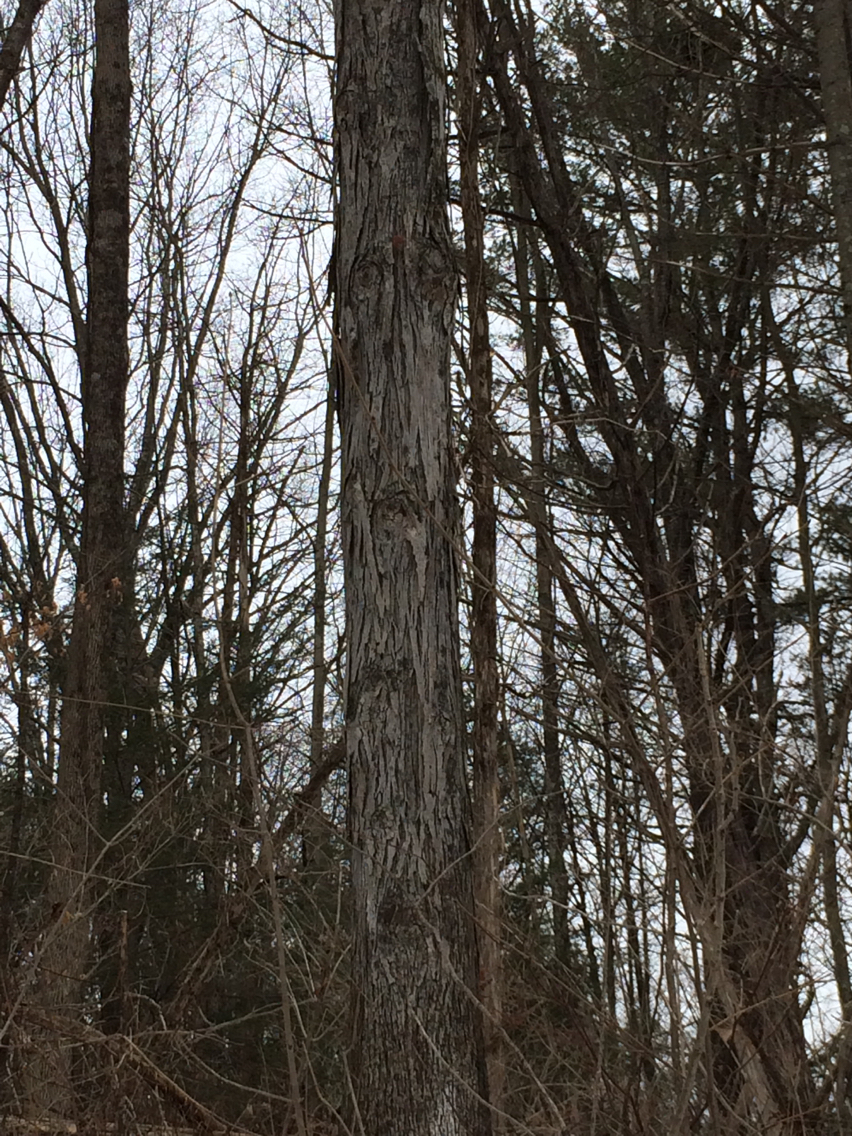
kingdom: Plantae
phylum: Tracheophyta
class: Magnoliopsida
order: Fagales
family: Juglandaceae
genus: Carya
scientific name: Carya ovata
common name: Shagbark hickory
